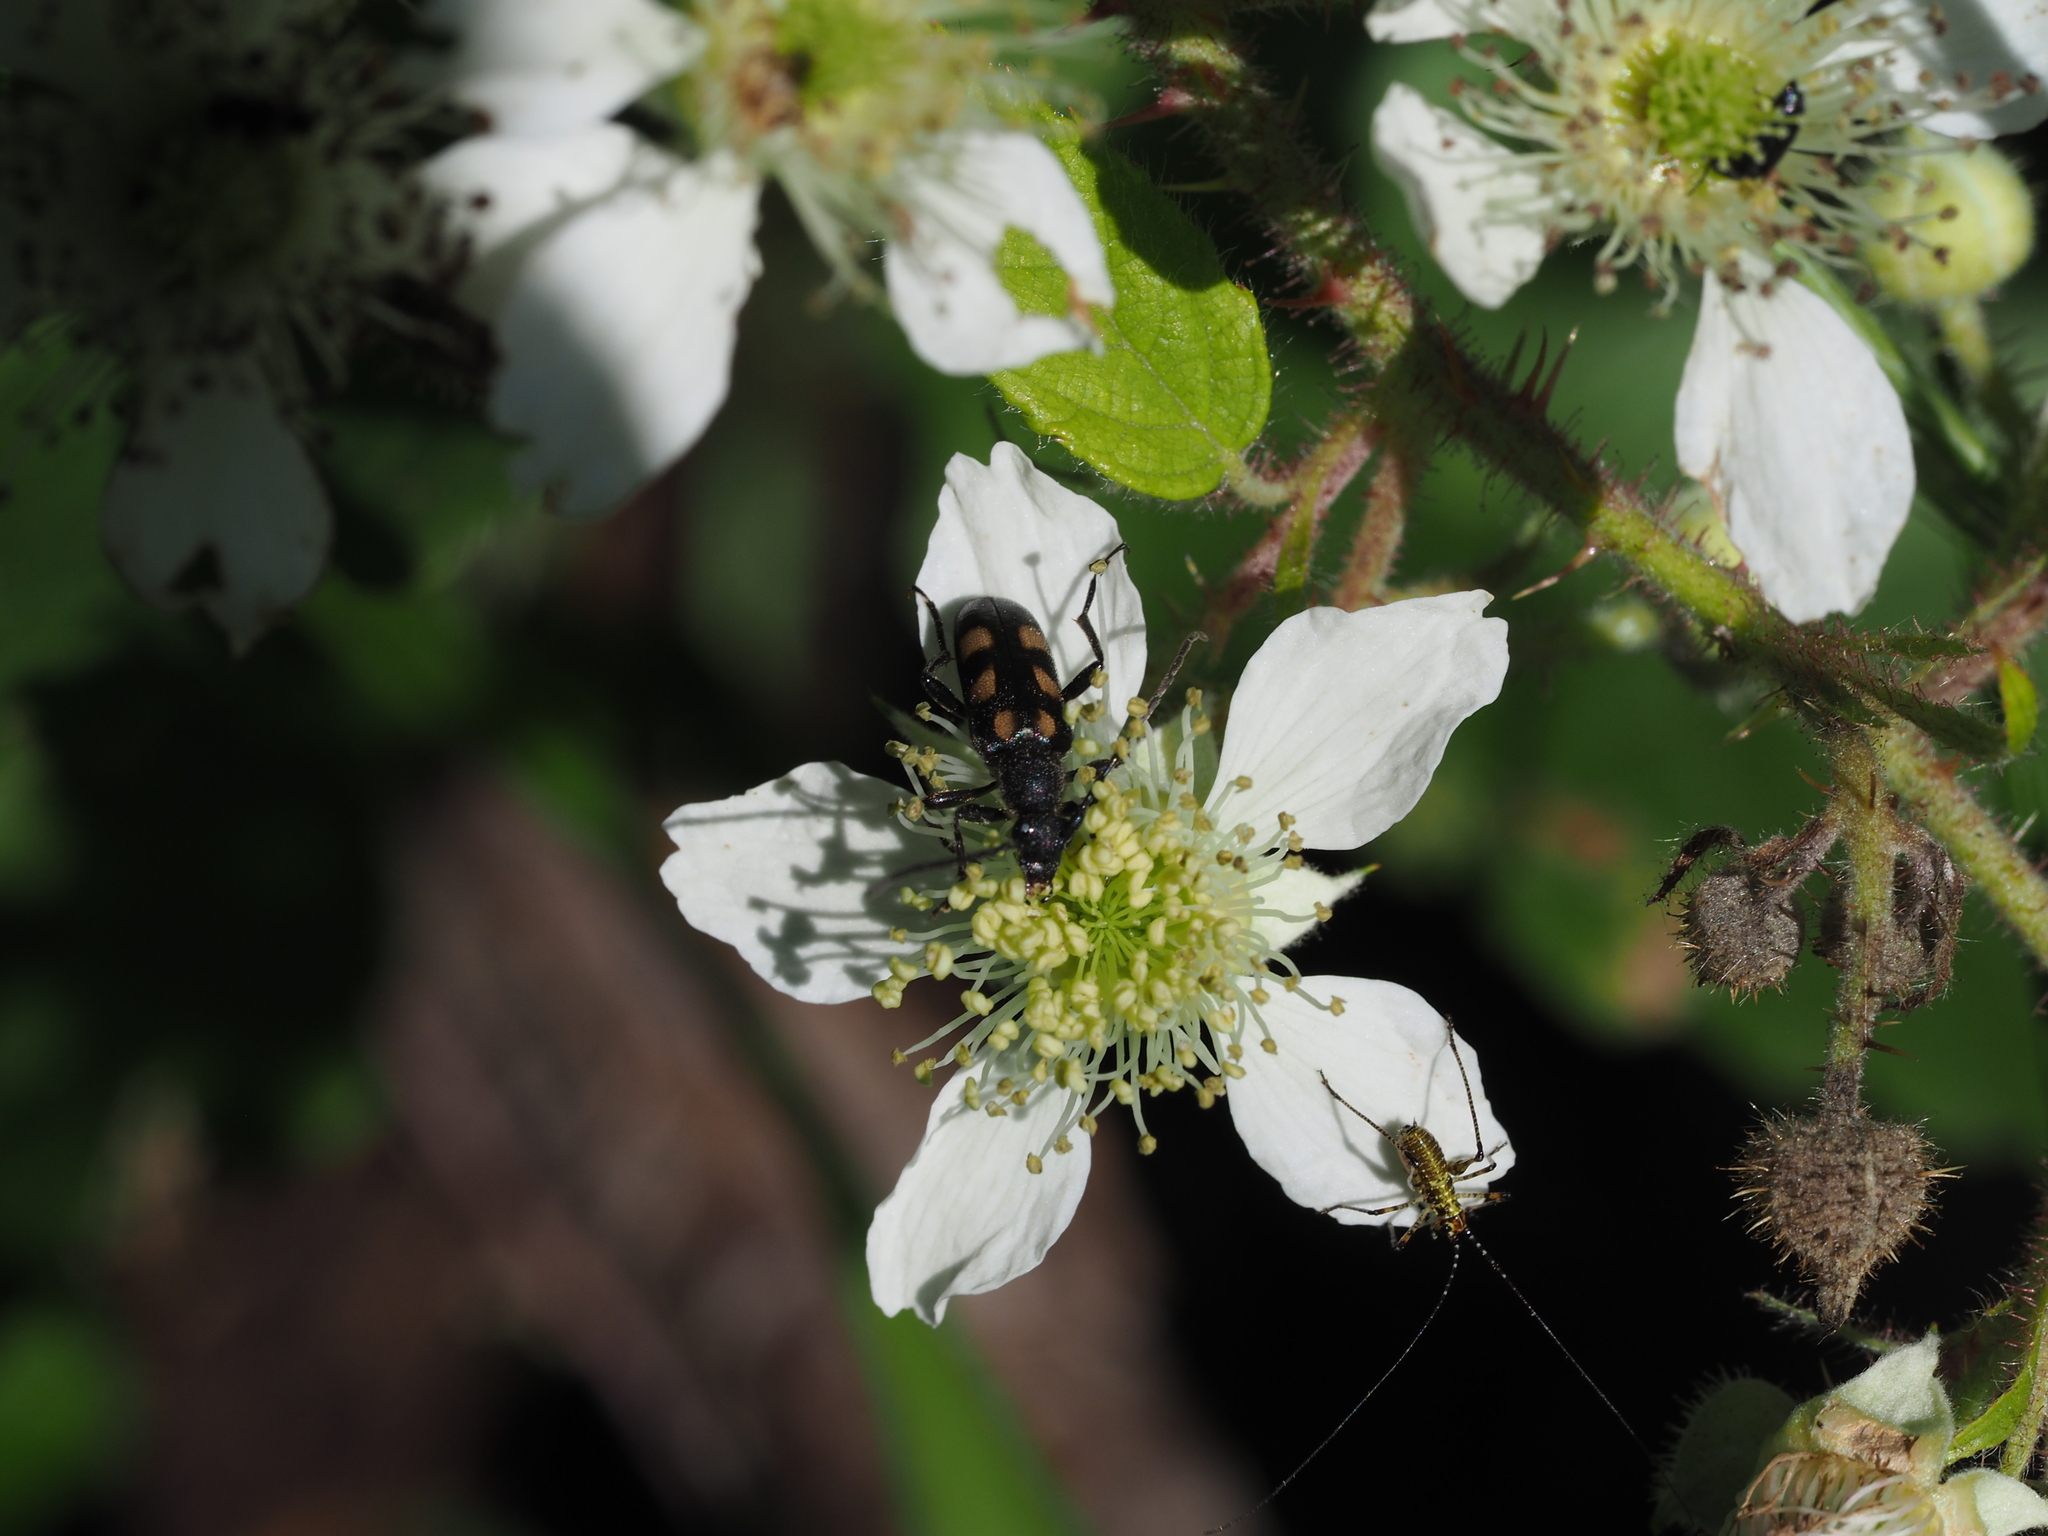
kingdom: Animalia
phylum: Arthropoda
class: Insecta
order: Coleoptera
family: Cerambycidae
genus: Anoplodera
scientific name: Anoplodera sexguttata
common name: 6 spotted longhorn
